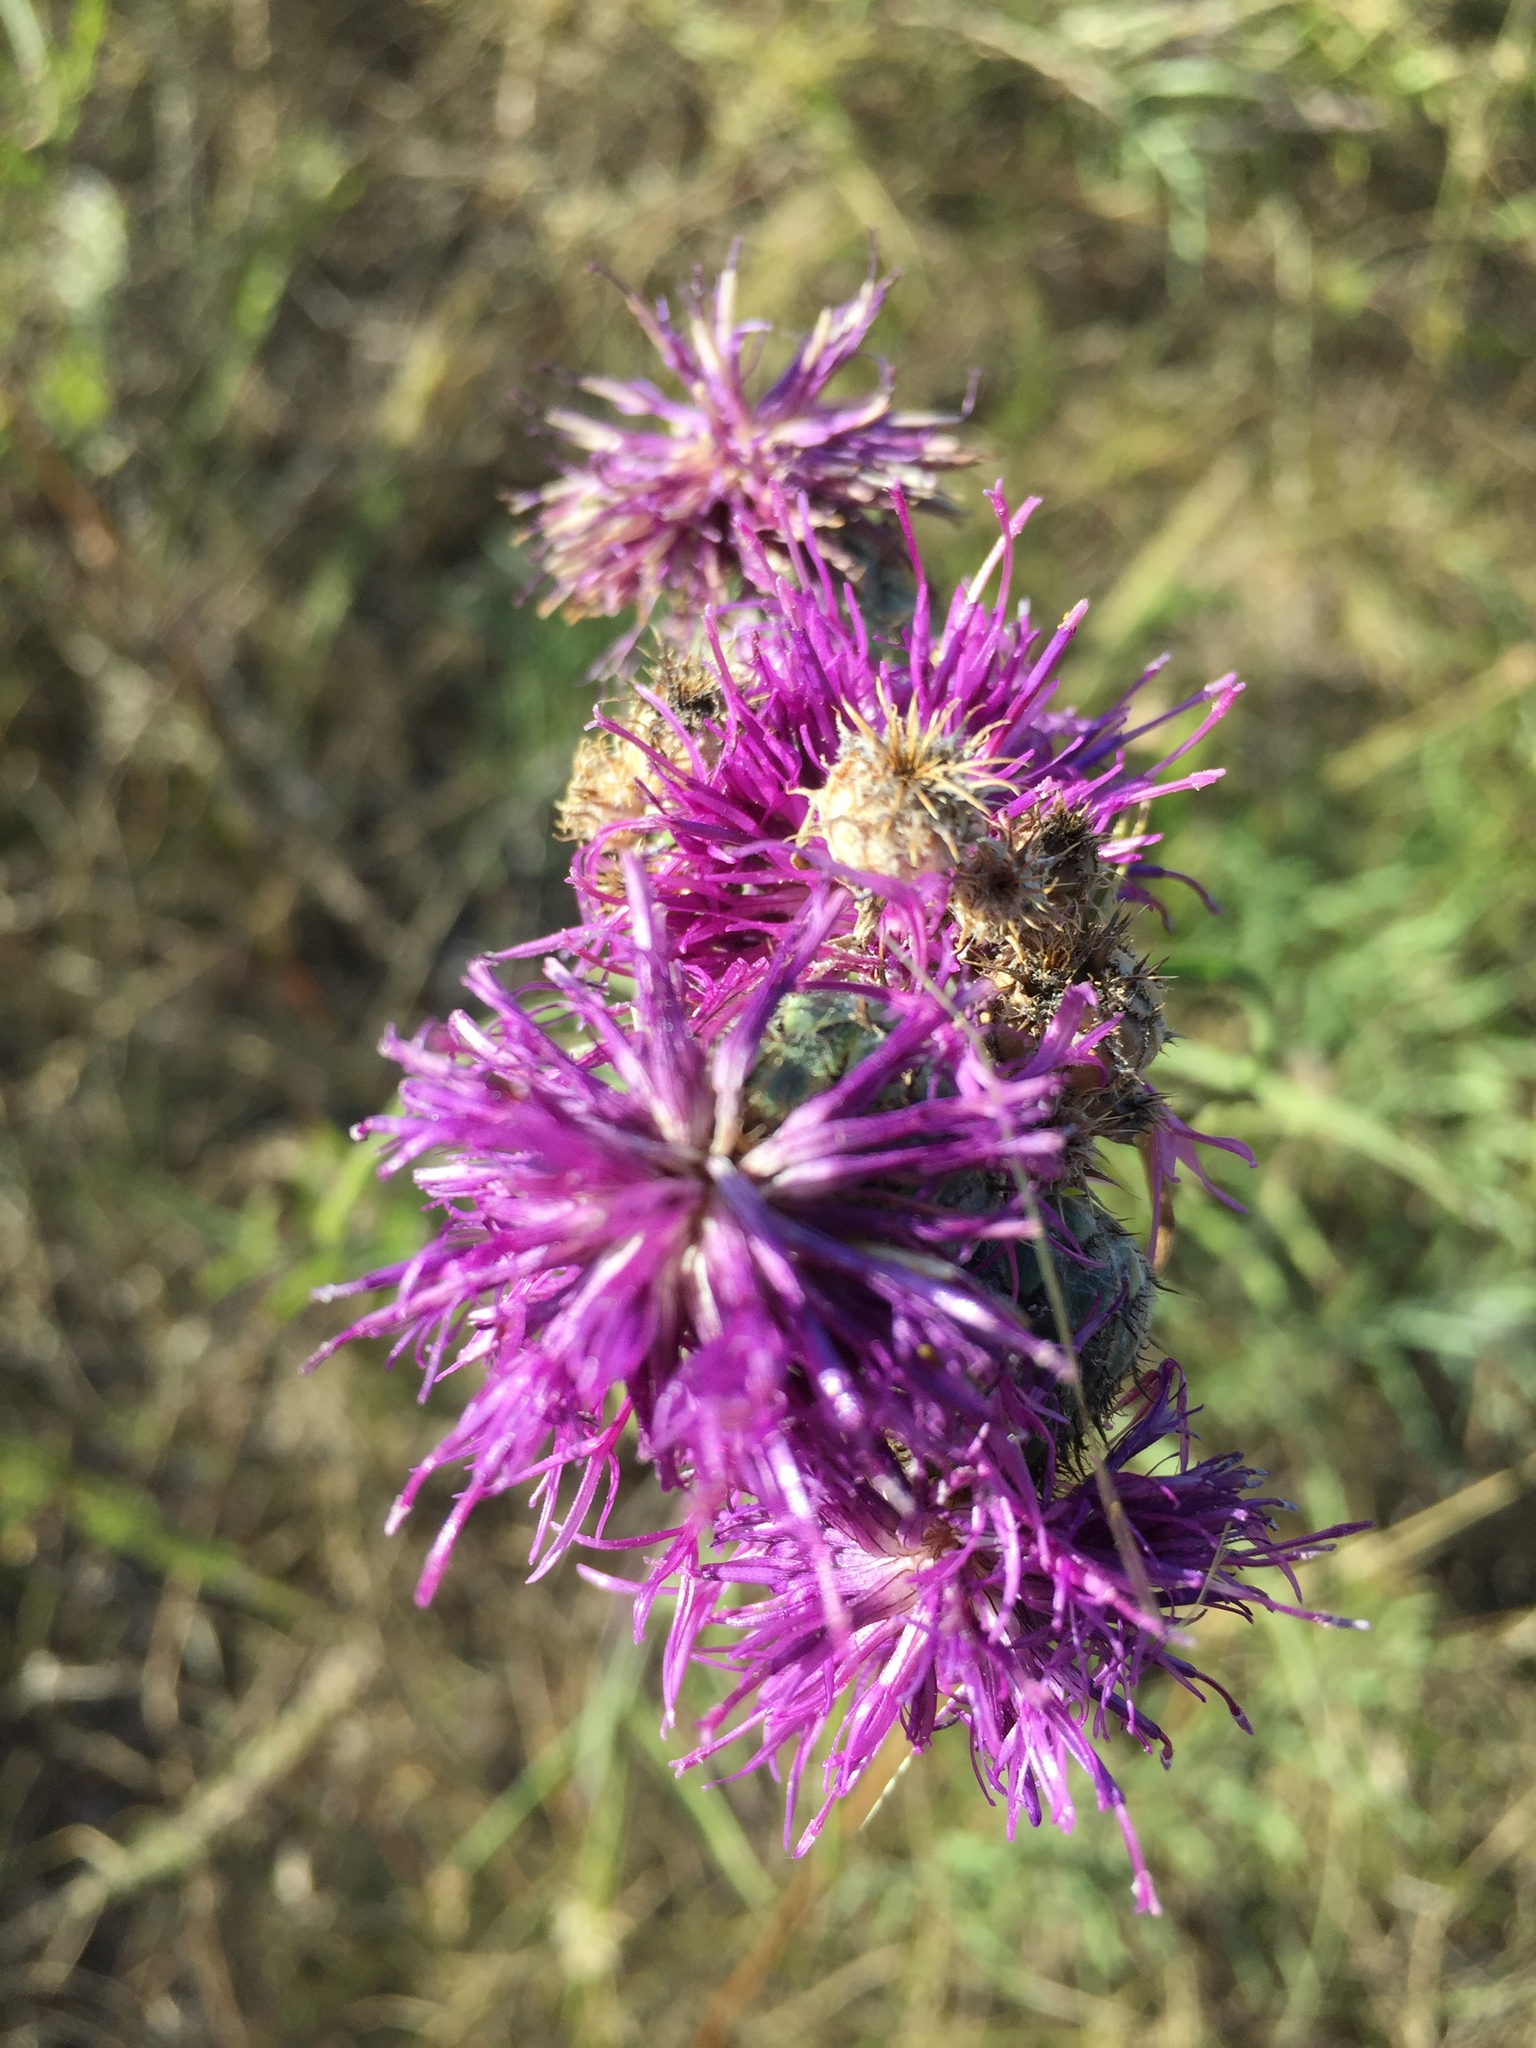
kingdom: Plantae
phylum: Tracheophyta
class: Magnoliopsida
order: Asterales
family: Asteraceae
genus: Centaurea
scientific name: Centaurea scabiosa
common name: Greater knapweed
